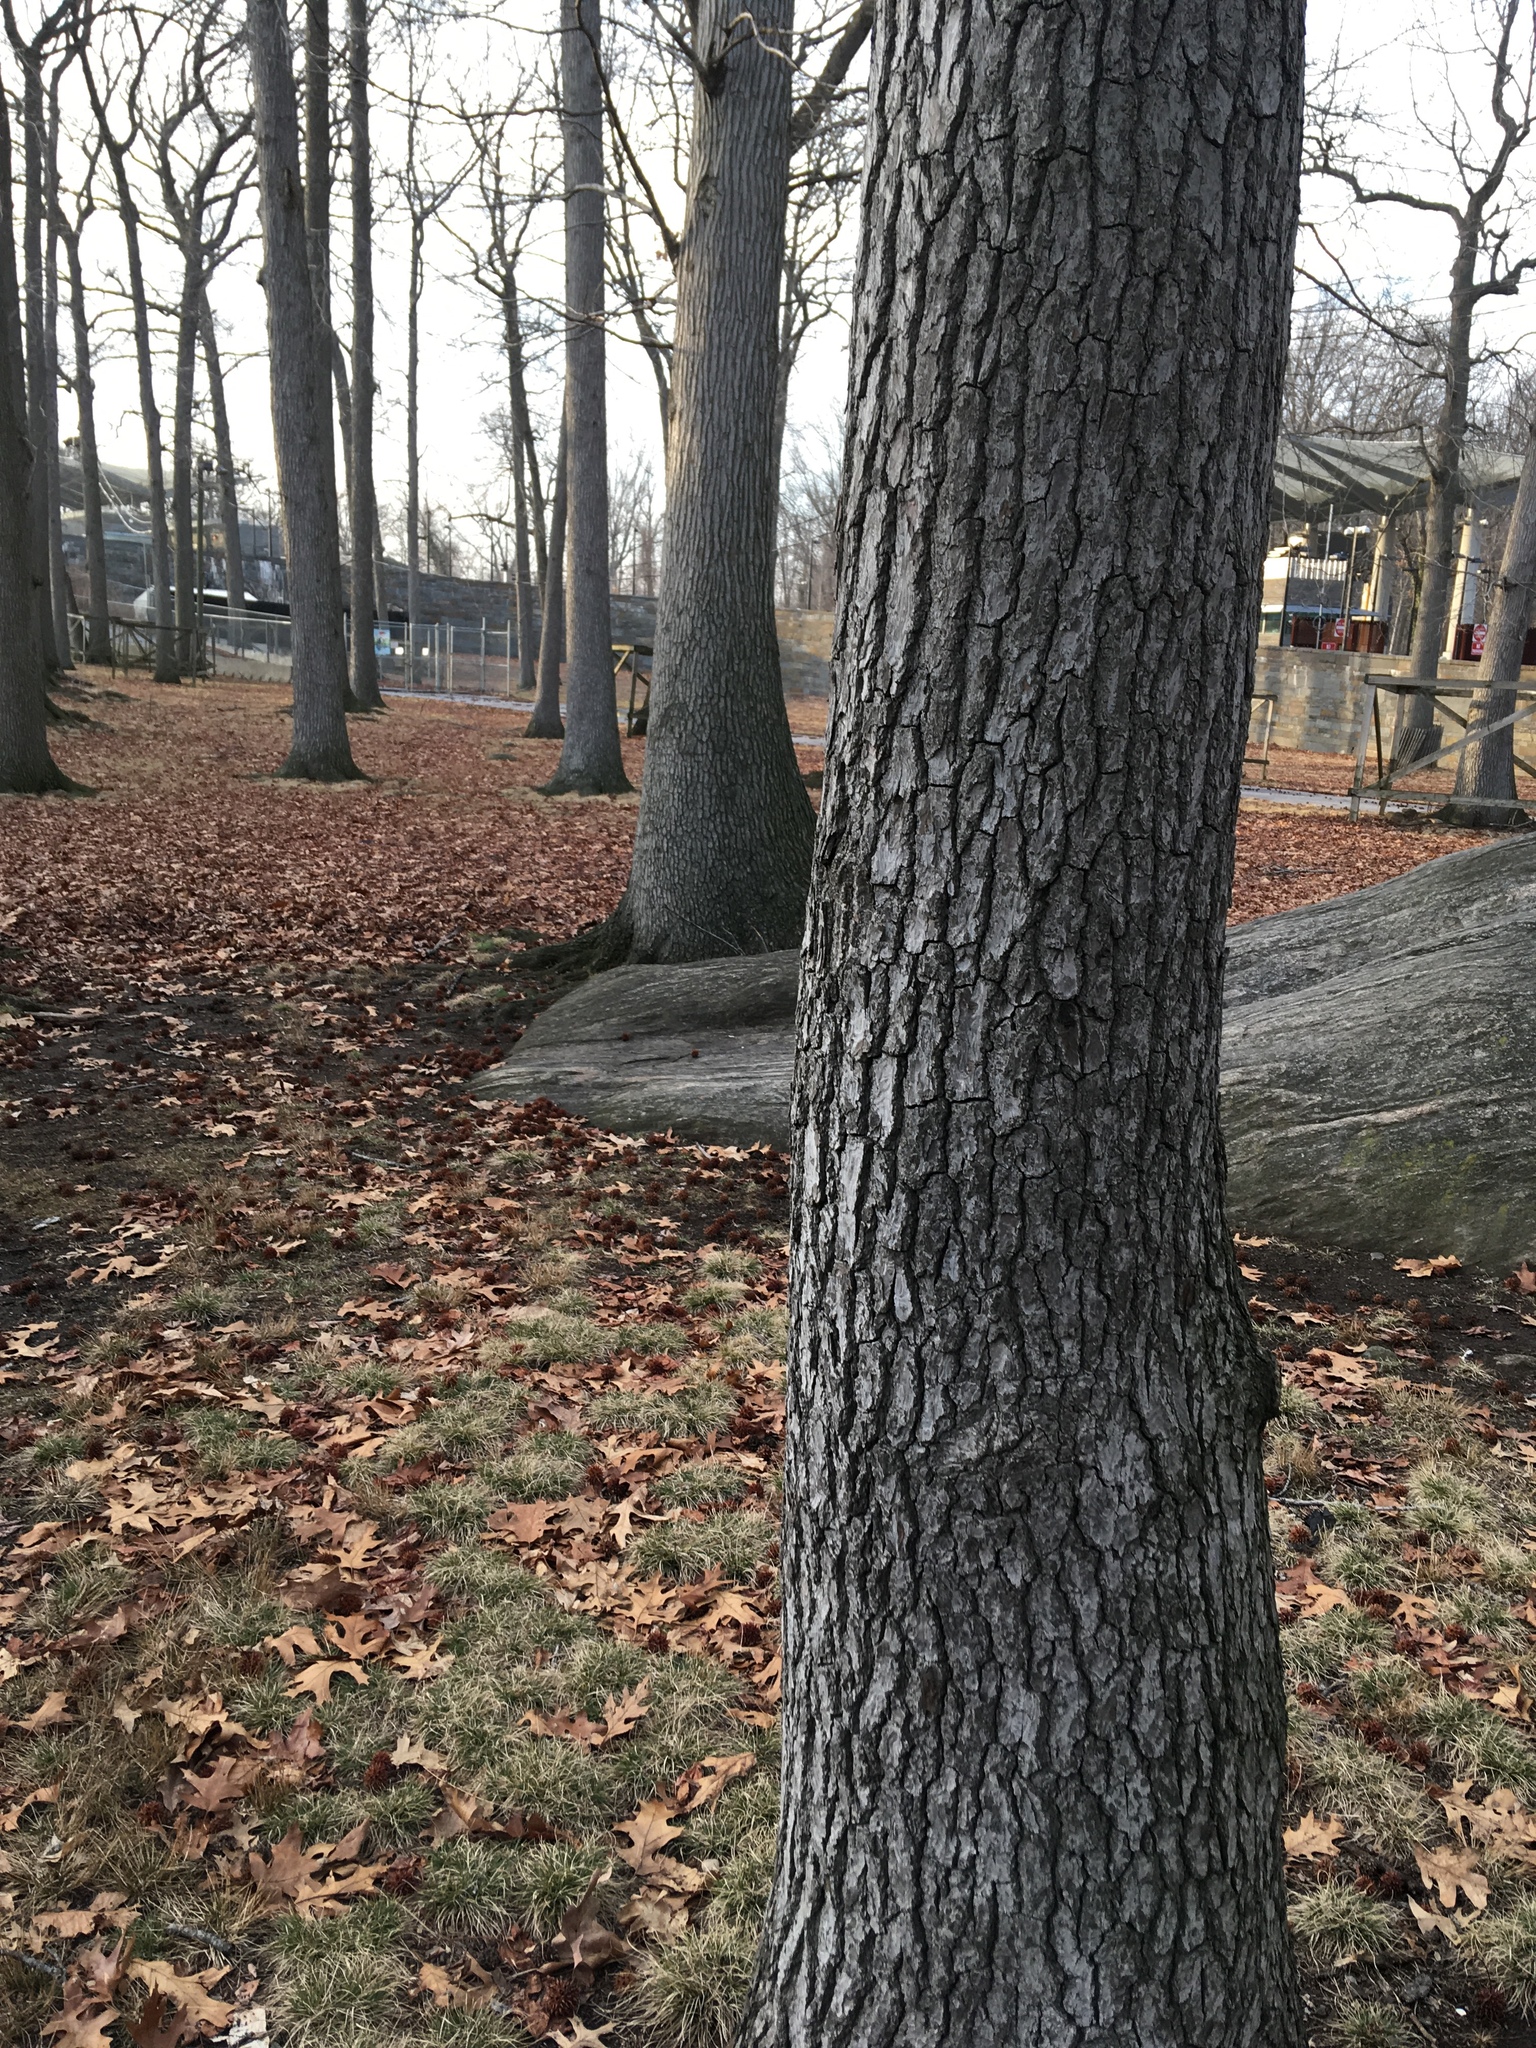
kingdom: Plantae
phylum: Tracheophyta
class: Magnoliopsida
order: Saxifragales
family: Altingiaceae
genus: Liquidambar
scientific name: Liquidambar styraciflua
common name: Sweet gum
